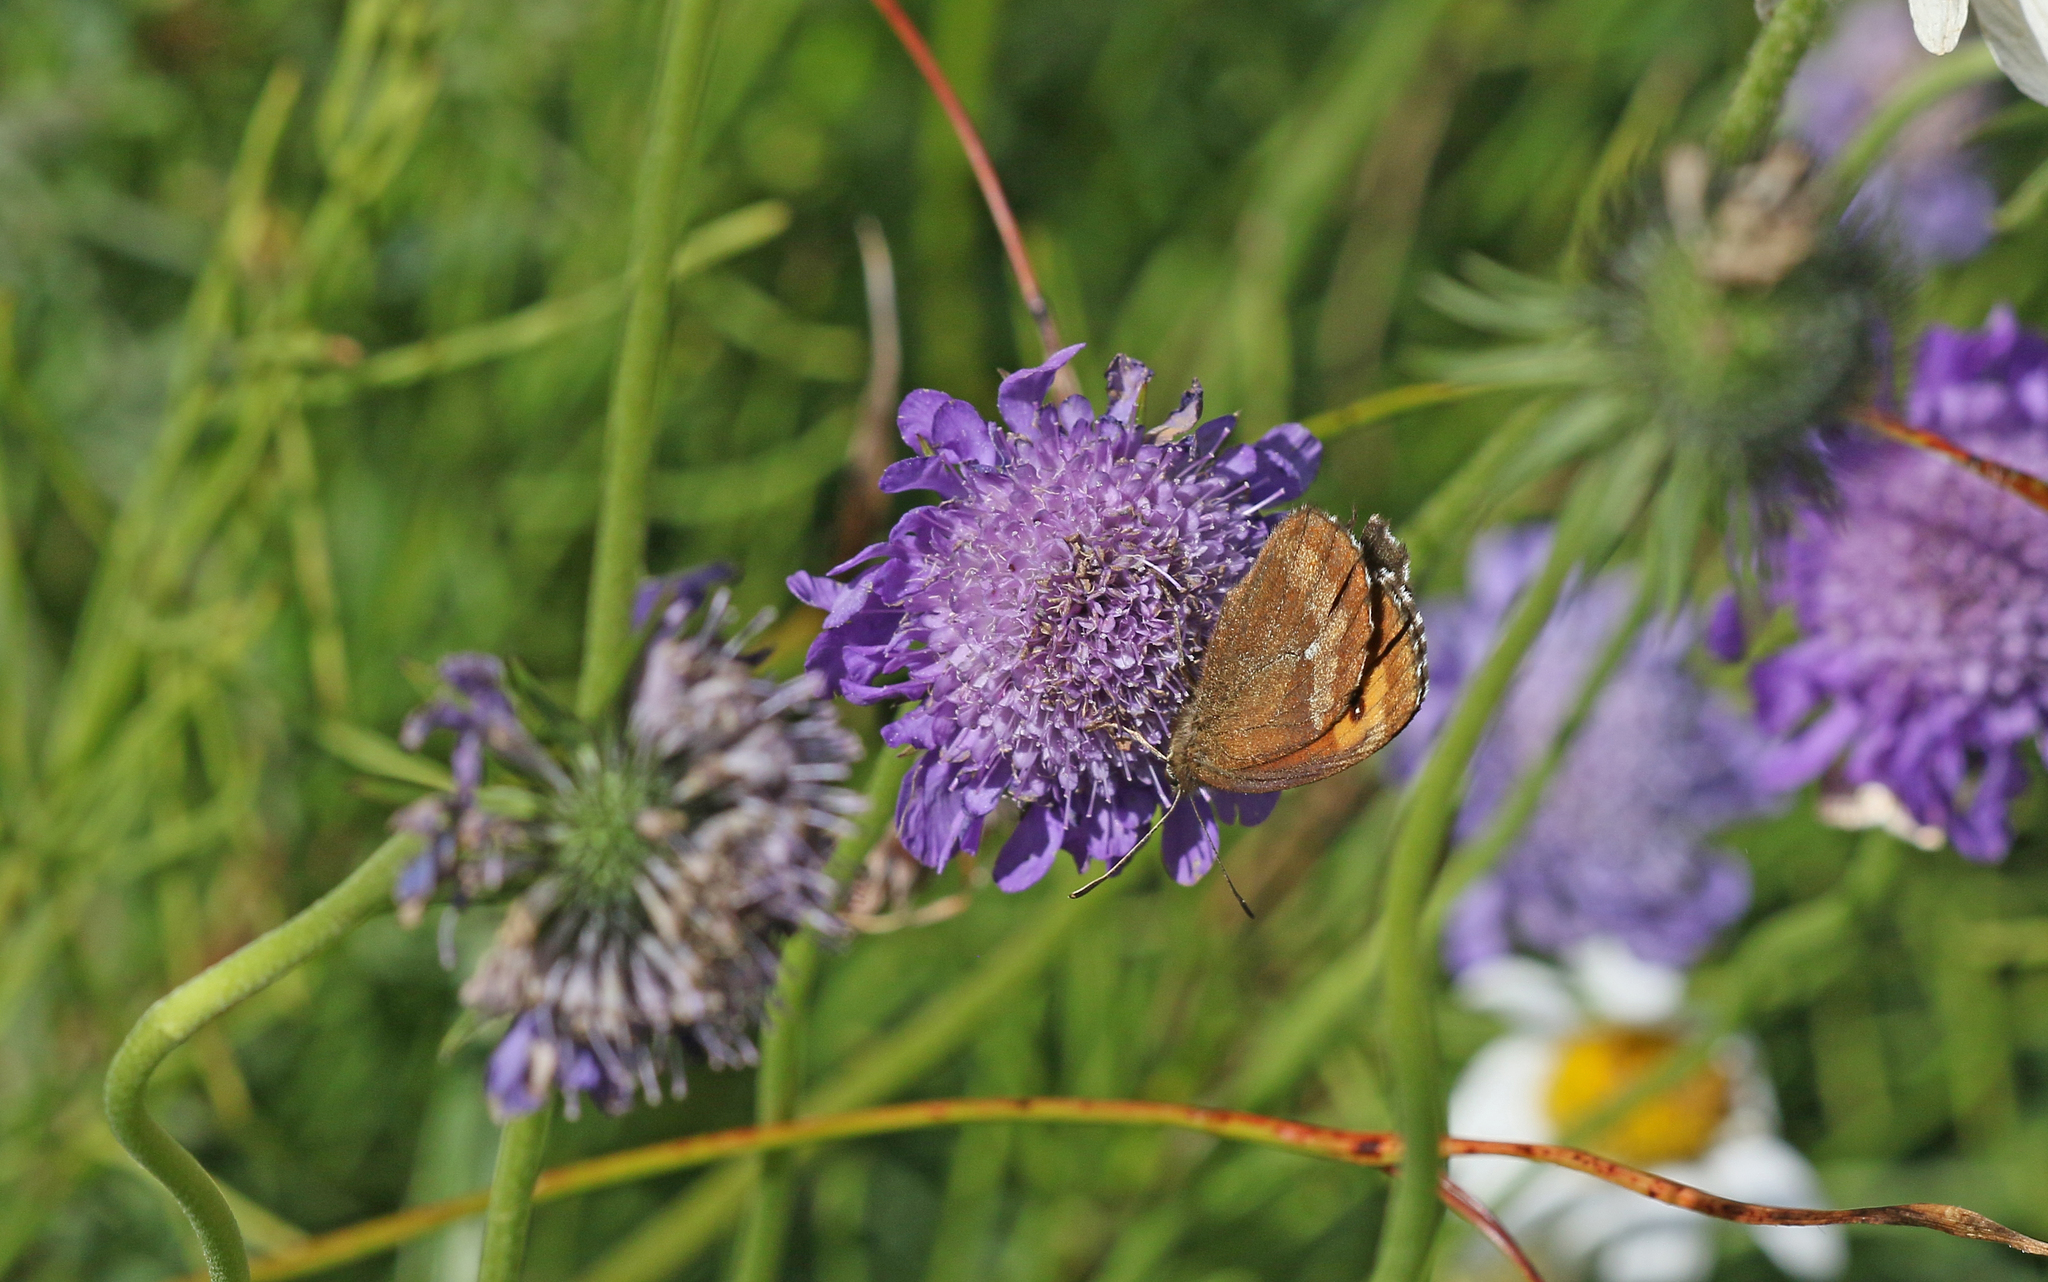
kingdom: Animalia
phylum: Arthropoda
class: Insecta
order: Lepidoptera
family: Nymphalidae
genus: Erebia
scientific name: Erebia euryale
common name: Large ringlet
